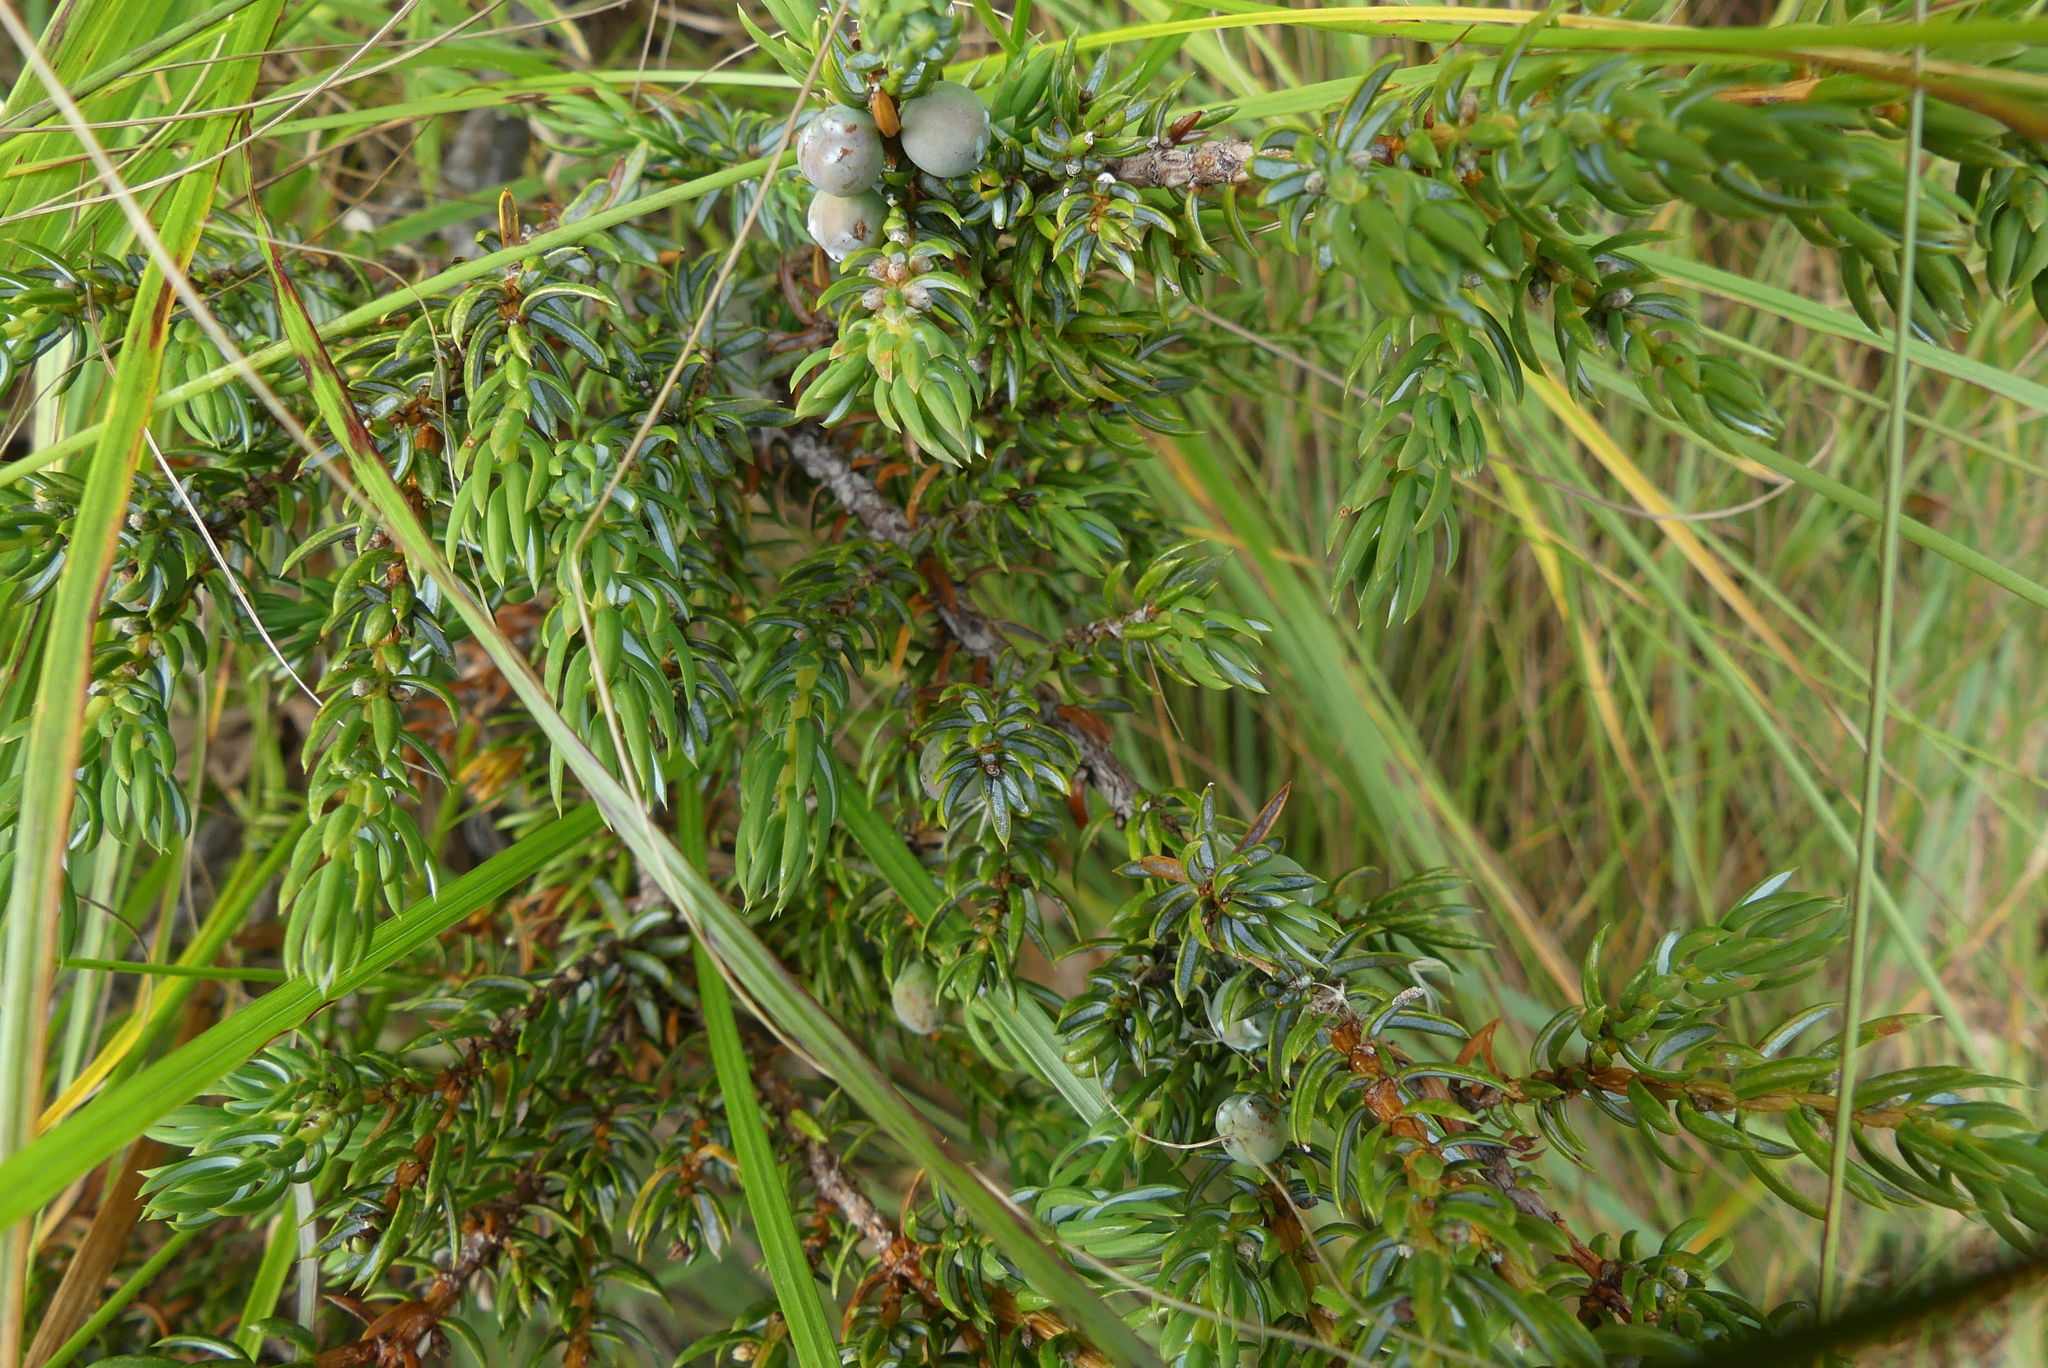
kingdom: Plantae
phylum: Tracheophyta
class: Pinopsida
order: Pinales
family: Cupressaceae
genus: Juniperus
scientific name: Juniperus communis
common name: Common juniper
